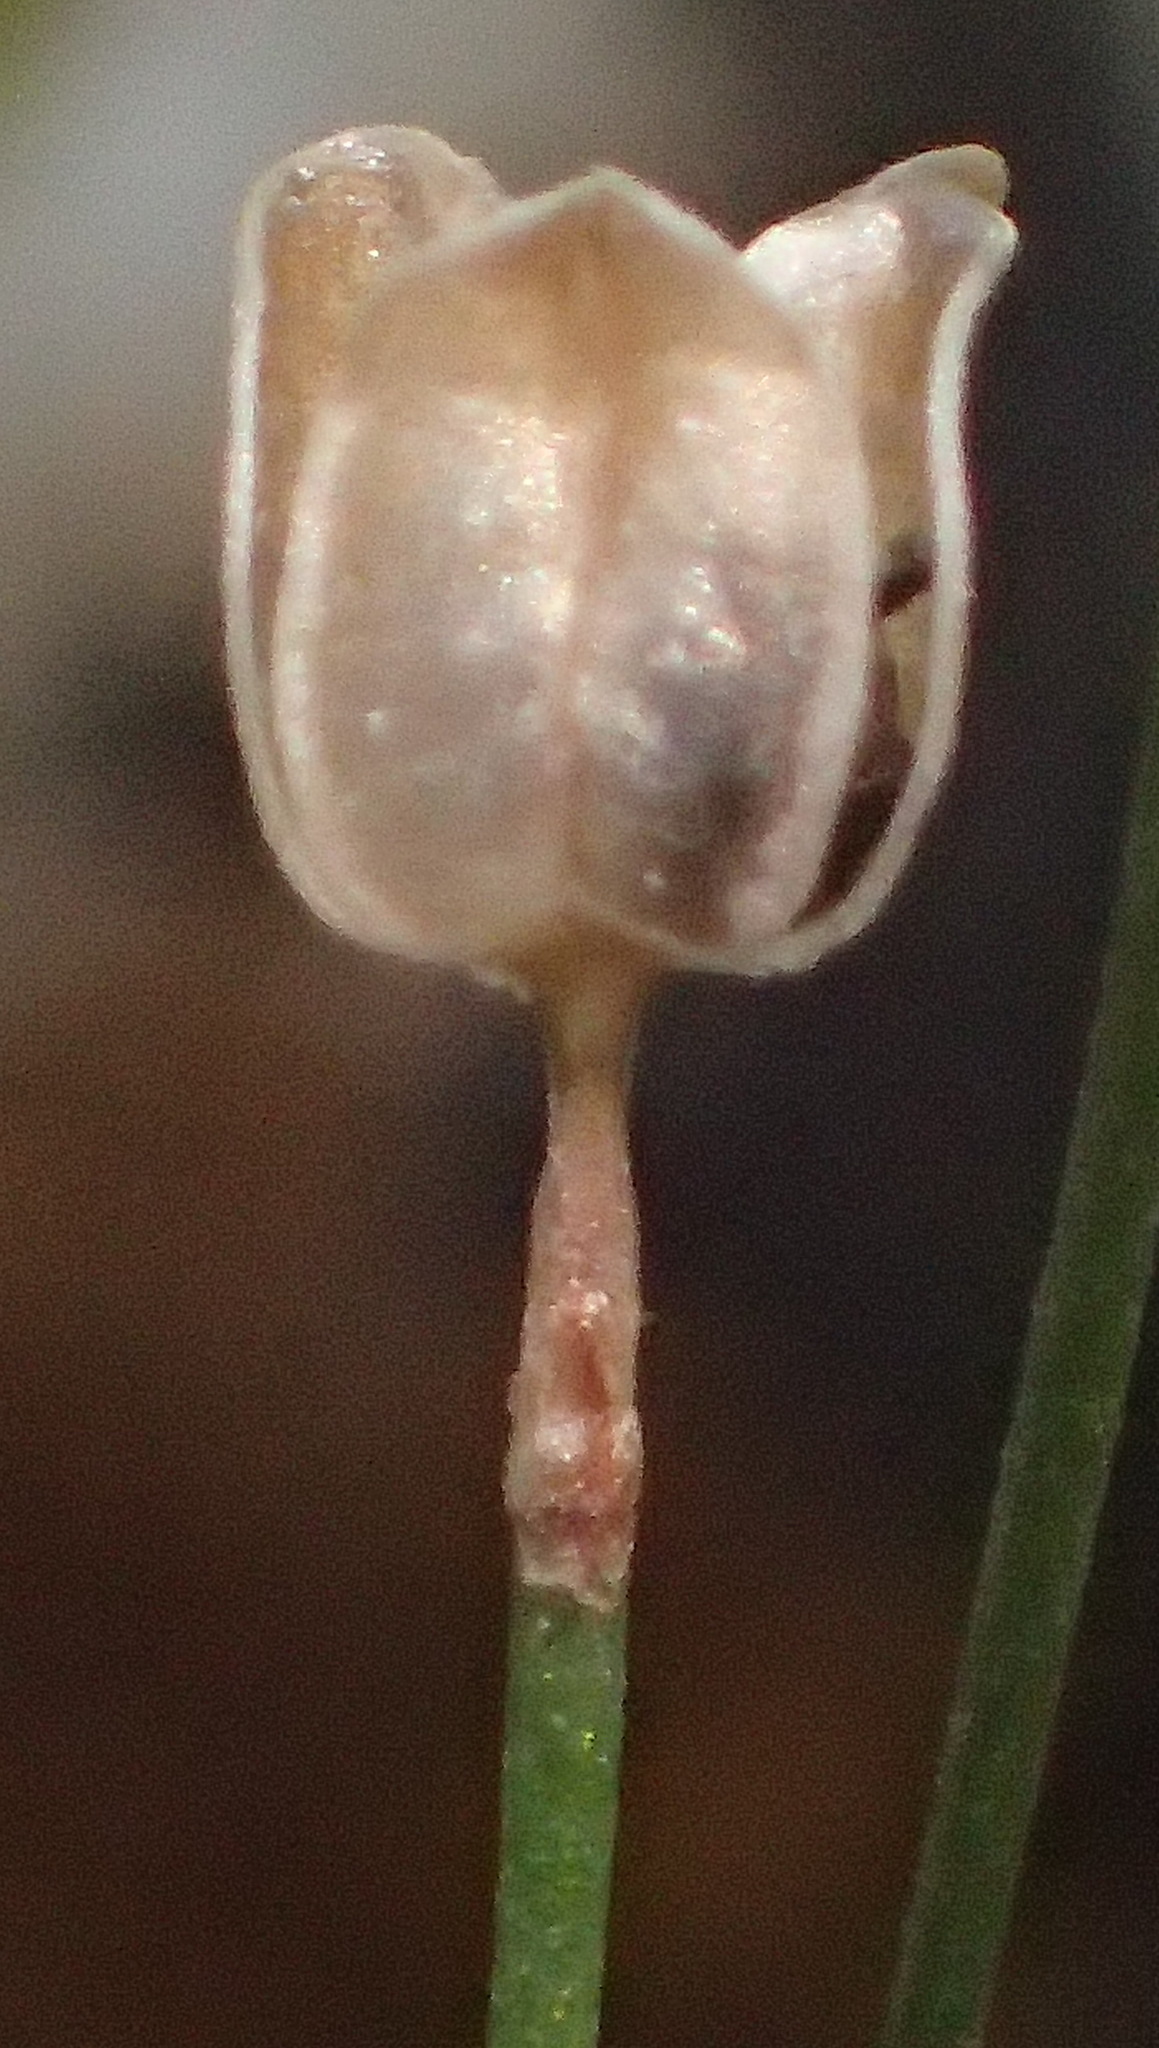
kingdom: Plantae
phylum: Tracheophyta
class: Liliopsida
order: Asparagales
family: Asparagaceae
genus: Drimia
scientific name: Drimia uniflora
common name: Fairy bell
